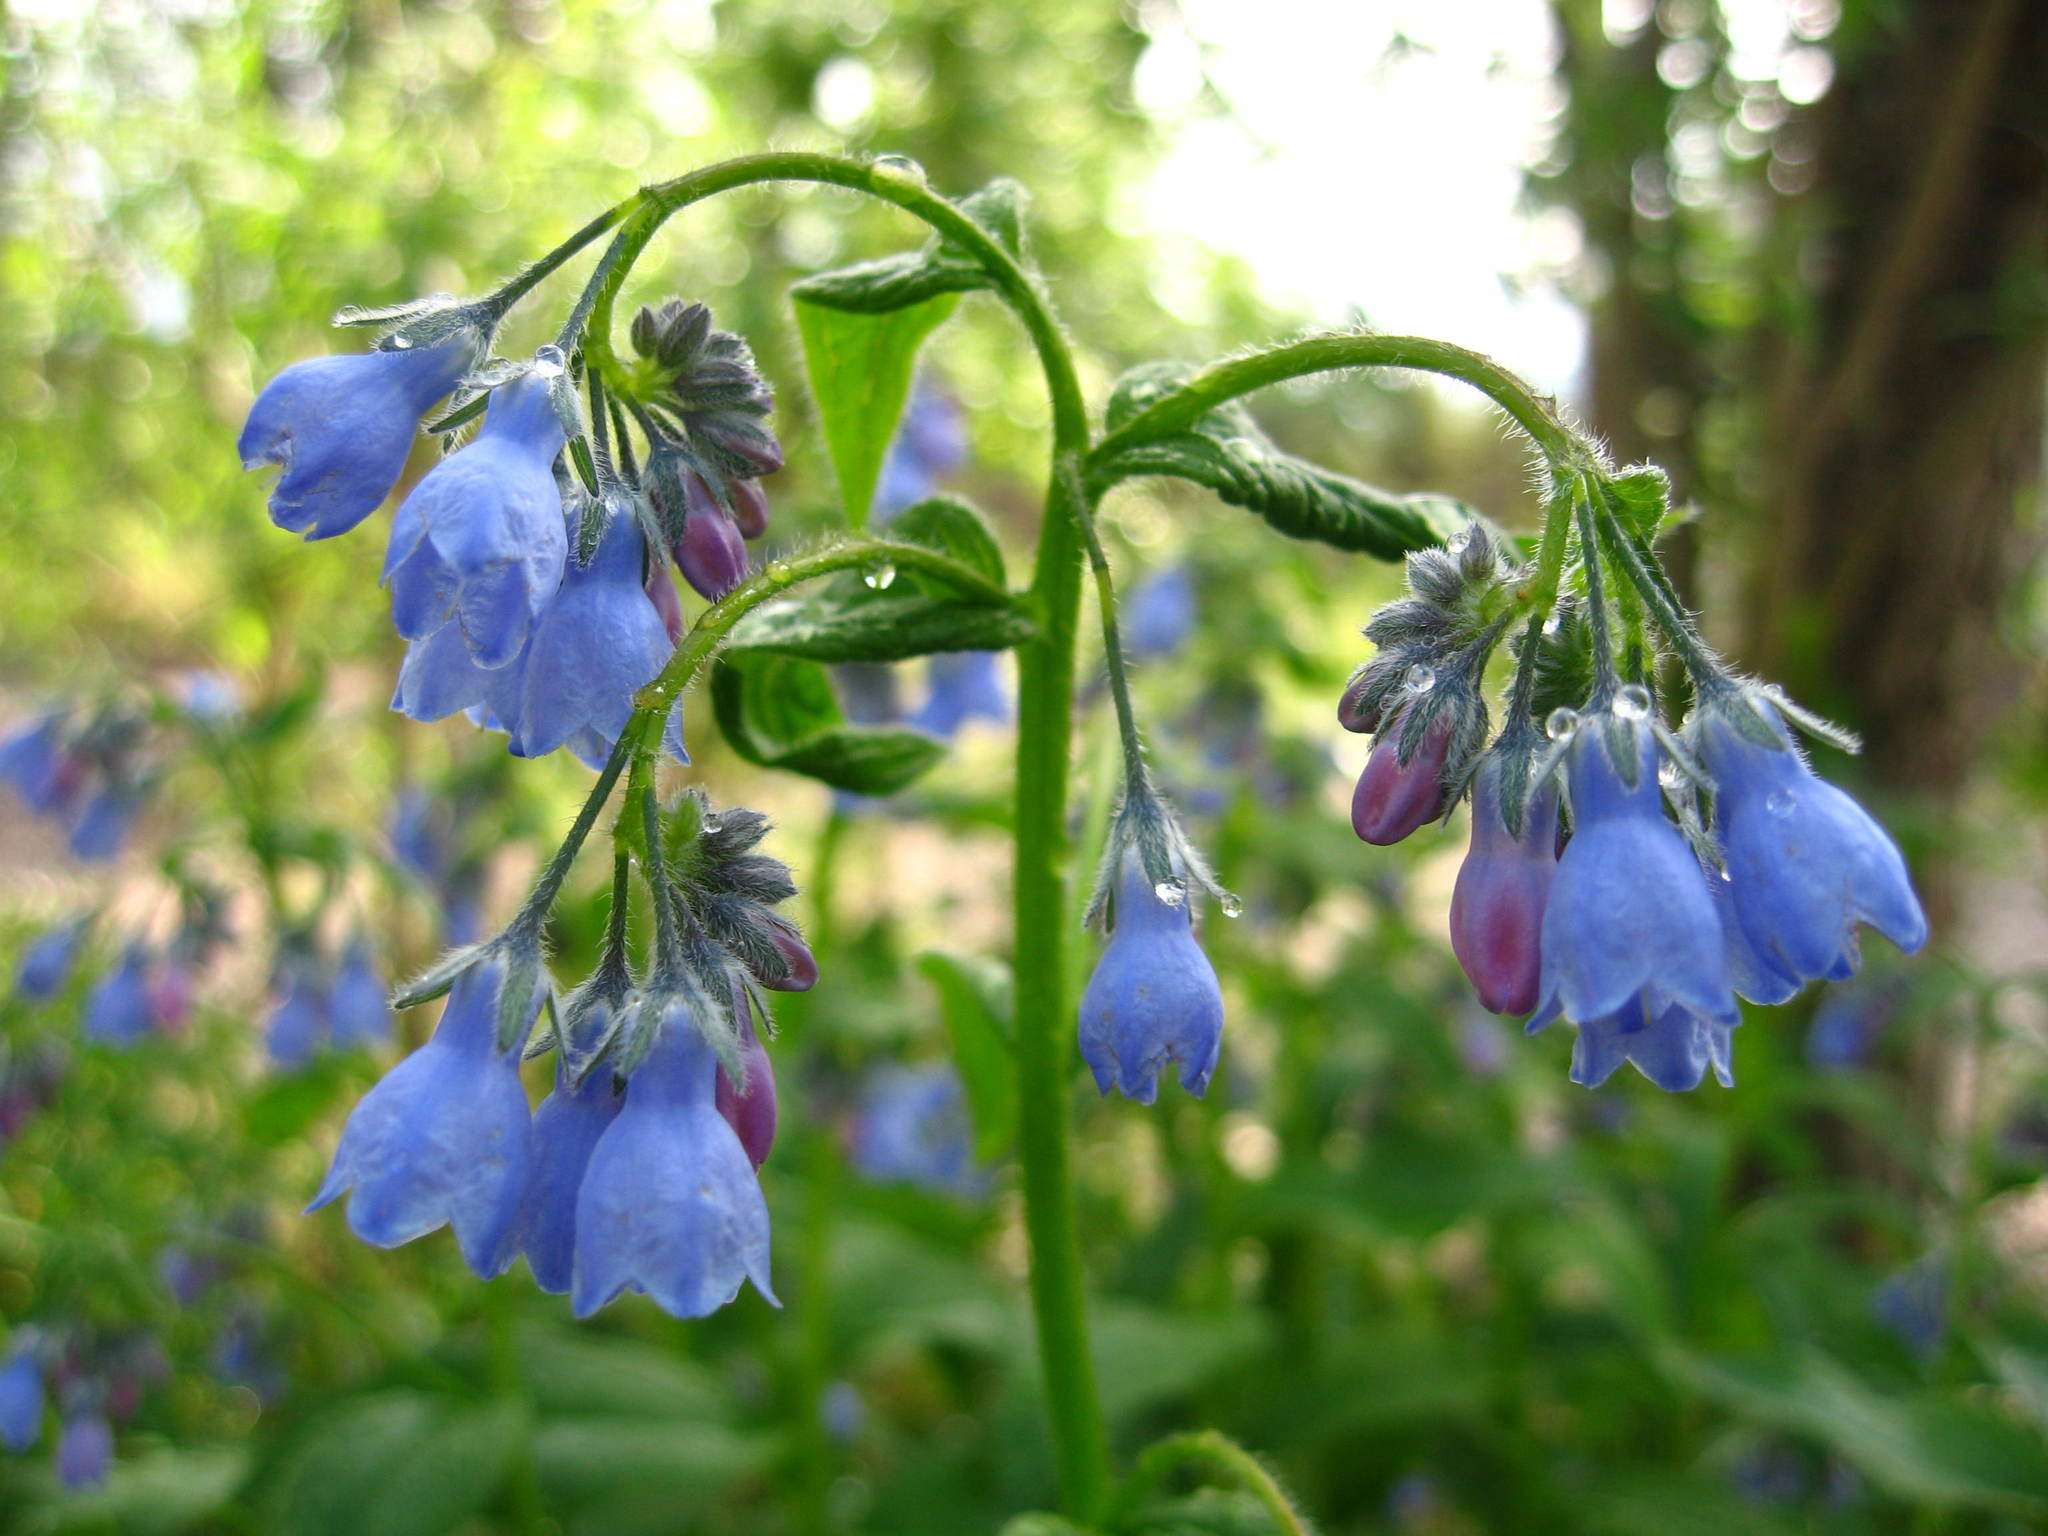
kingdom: Plantae
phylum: Tracheophyta
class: Magnoliopsida
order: Boraginales
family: Boraginaceae
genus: Mertensia
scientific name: Mertensia paniculata
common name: Panicled bluebells
